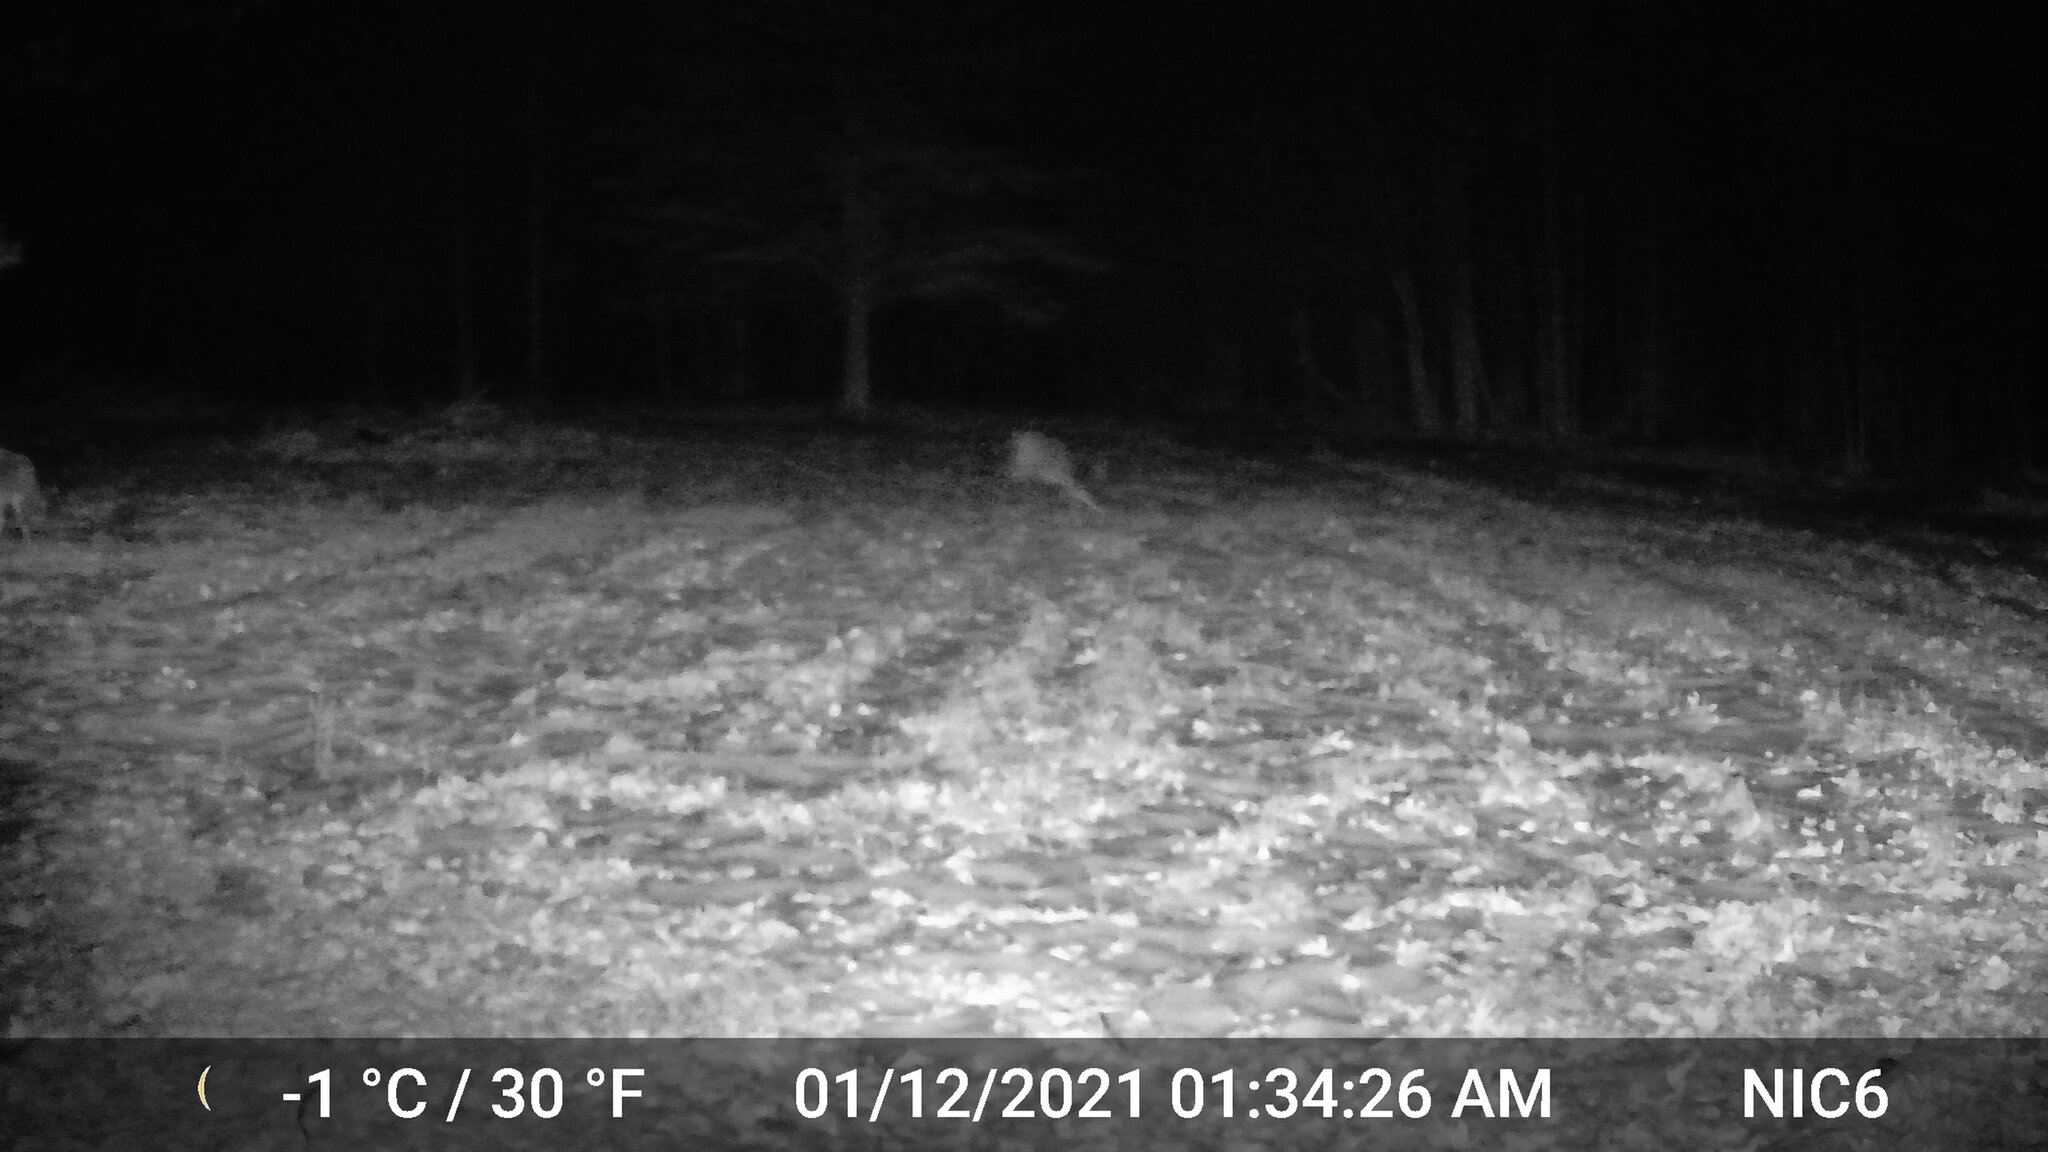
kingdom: Animalia
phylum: Chordata
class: Mammalia
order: Artiodactyla
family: Cervidae
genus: Odocoileus
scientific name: Odocoileus virginianus
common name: White-tailed deer
